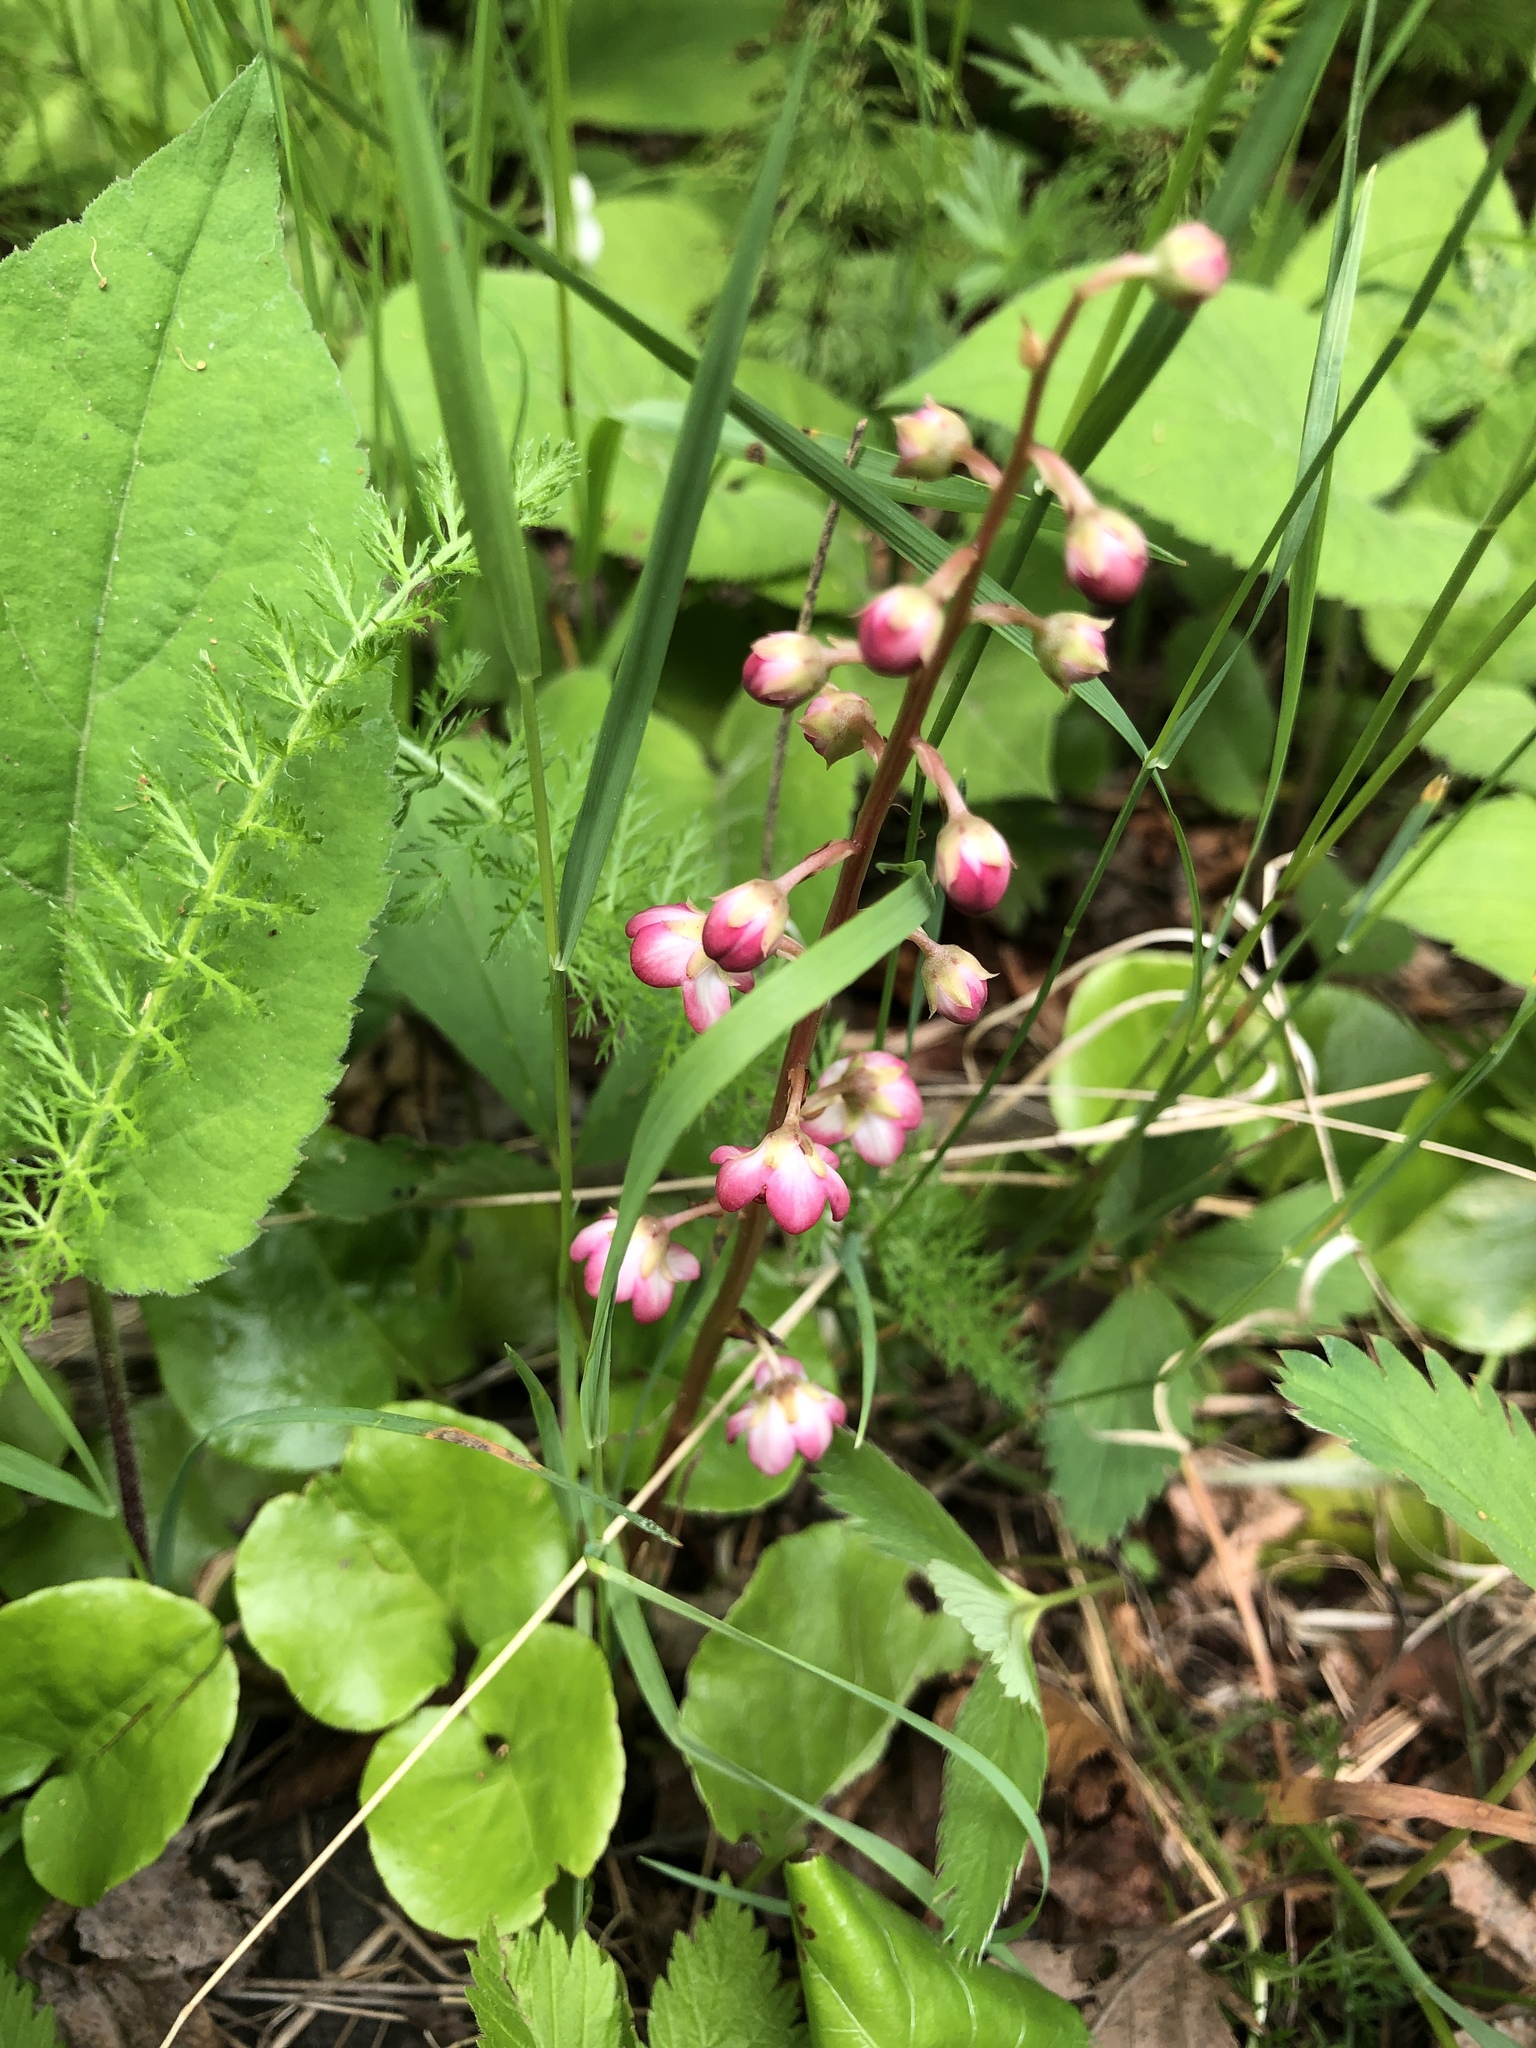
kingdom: Plantae
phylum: Tracheophyta
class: Magnoliopsida
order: Ericales
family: Ericaceae
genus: Pyrola
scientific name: Pyrola asarifolia
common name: Bog wintergreen
